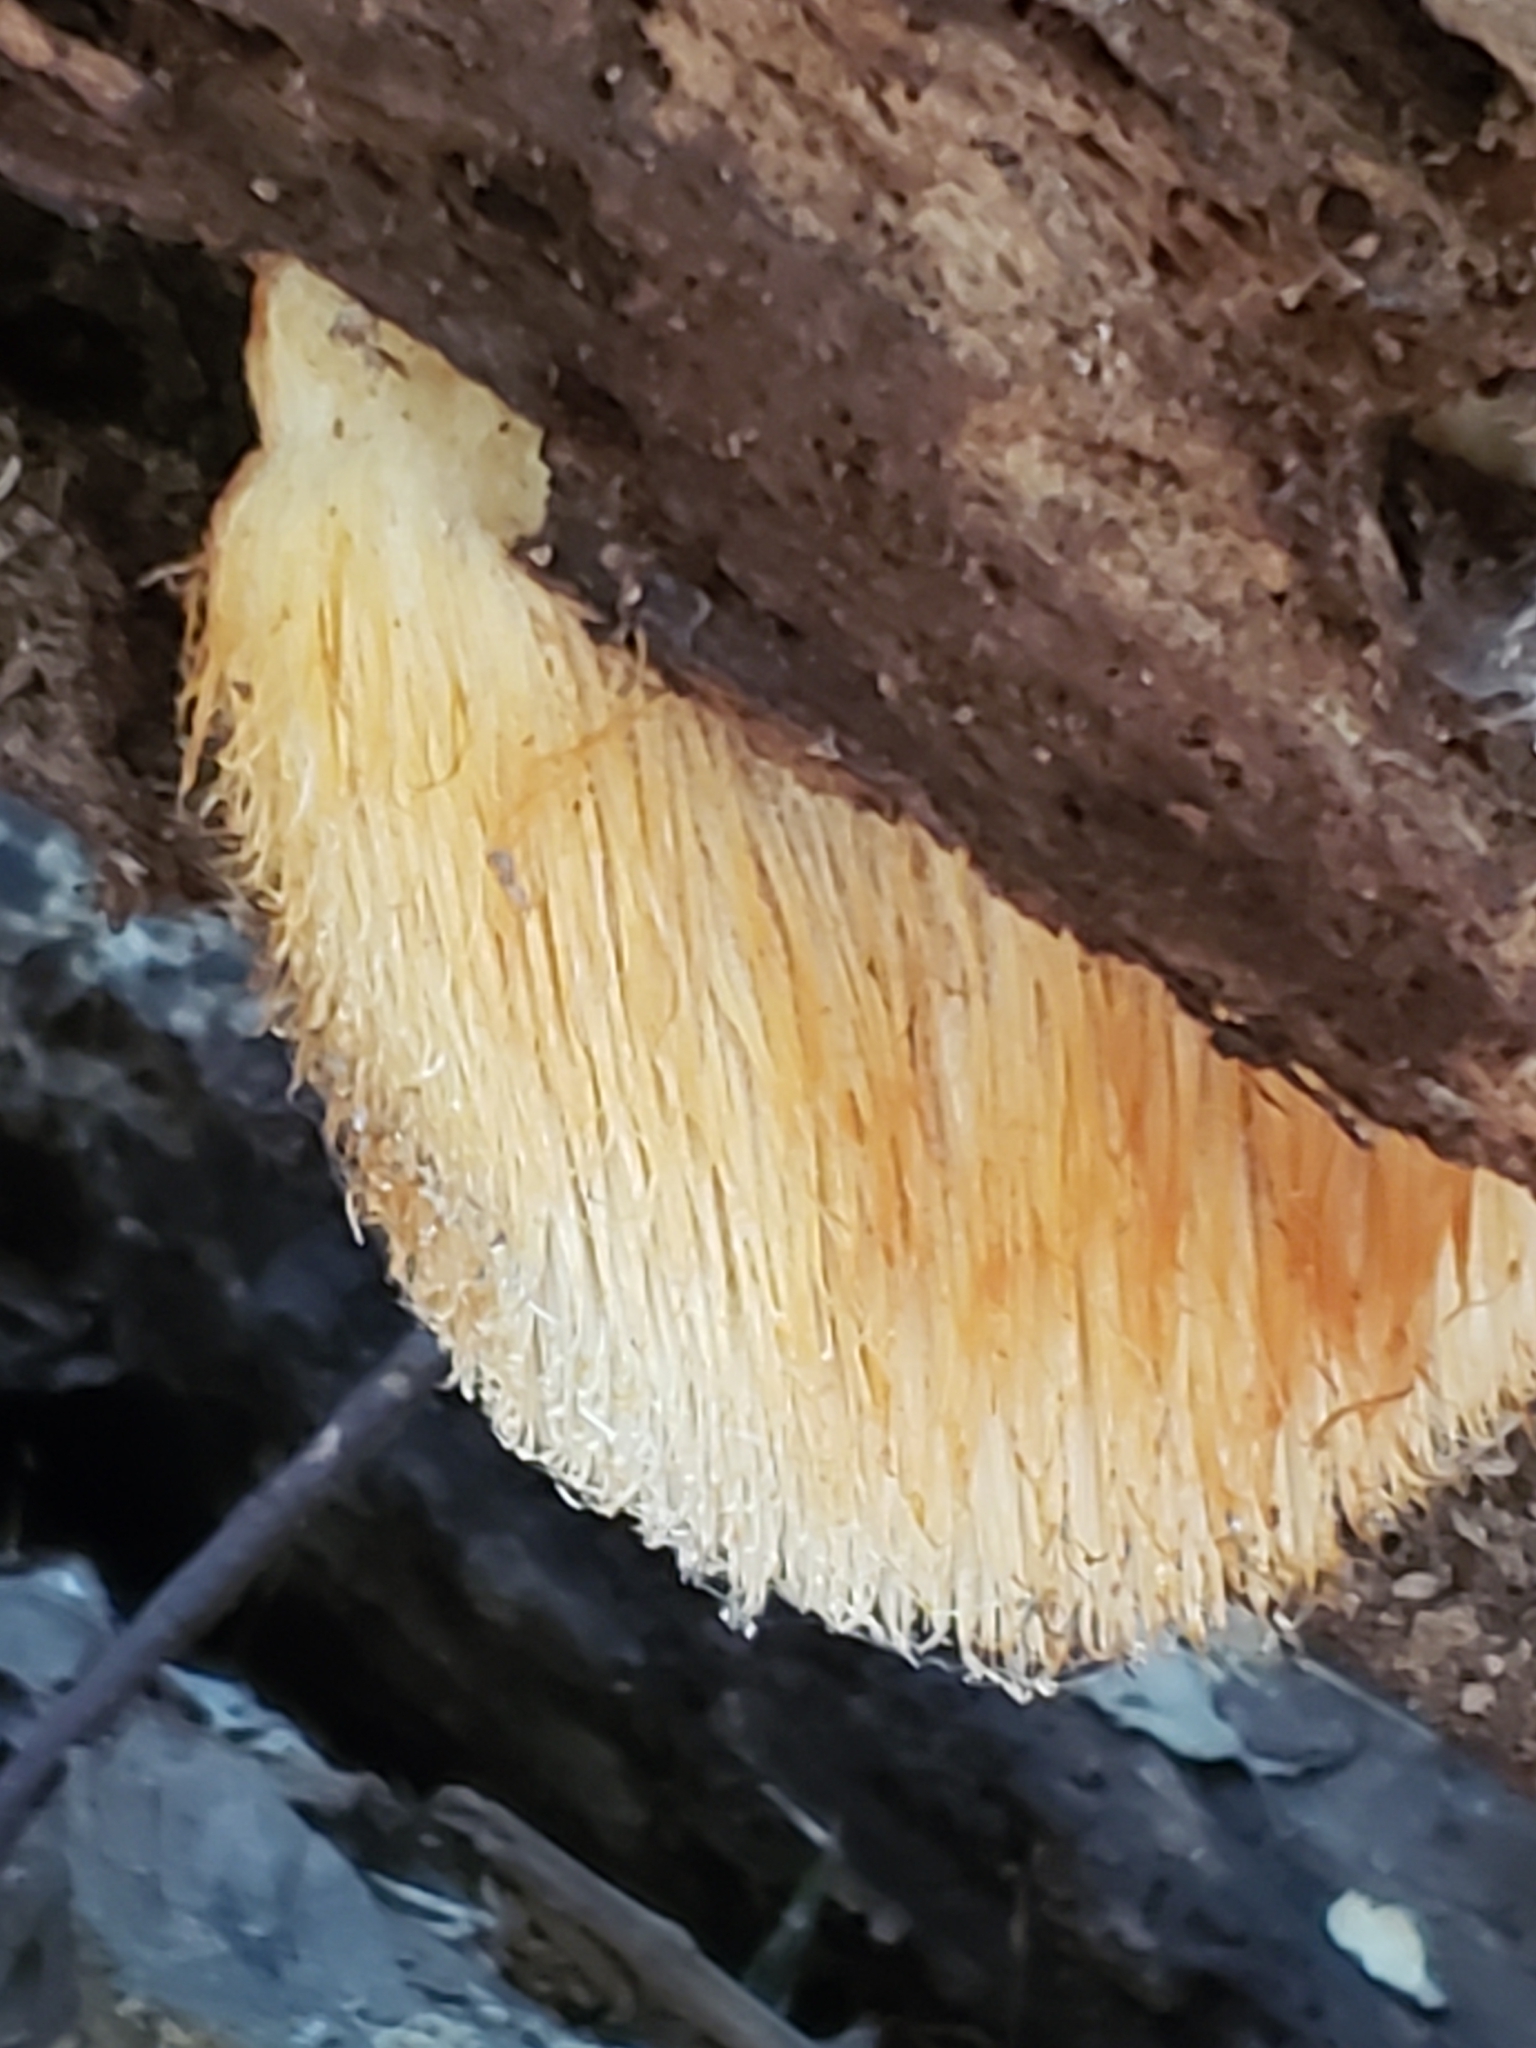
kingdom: Fungi
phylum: Basidiomycota
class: Agaricomycetes
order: Russulales
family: Hericiaceae
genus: Hericium
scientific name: Hericium erinaceus
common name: Bearded tooth
